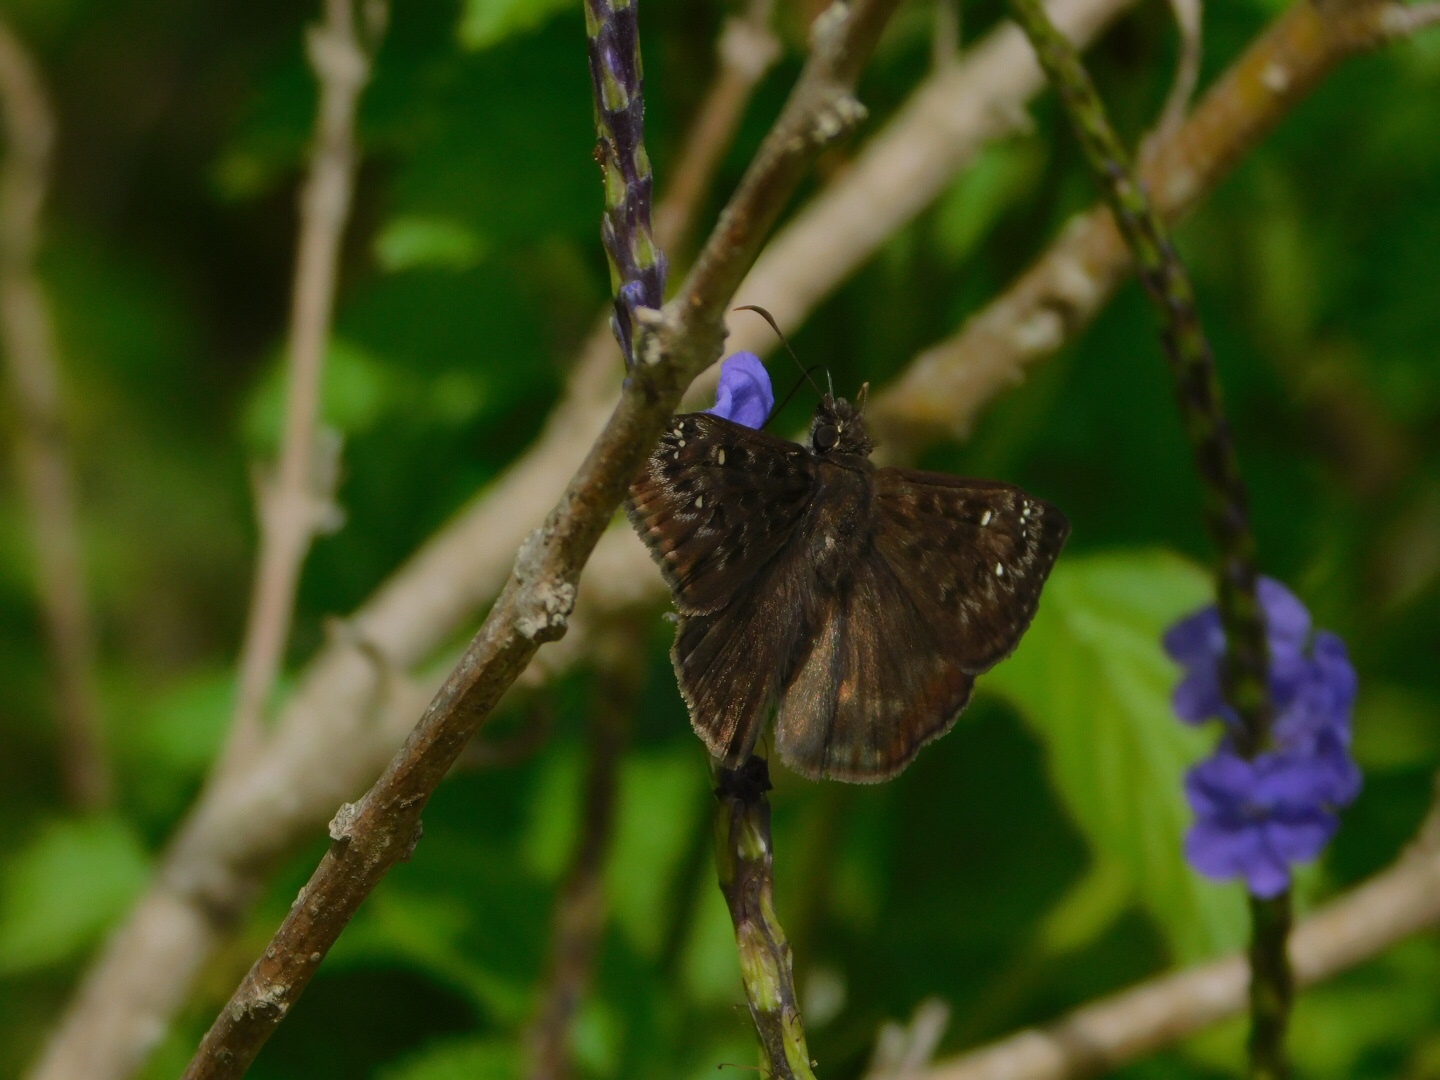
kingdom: Animalia
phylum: Arthropoda
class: Insecta
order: Lepidoptera
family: Hesperiidae
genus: Erynnis
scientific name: Erynnis horatius
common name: Horace's duskywing
